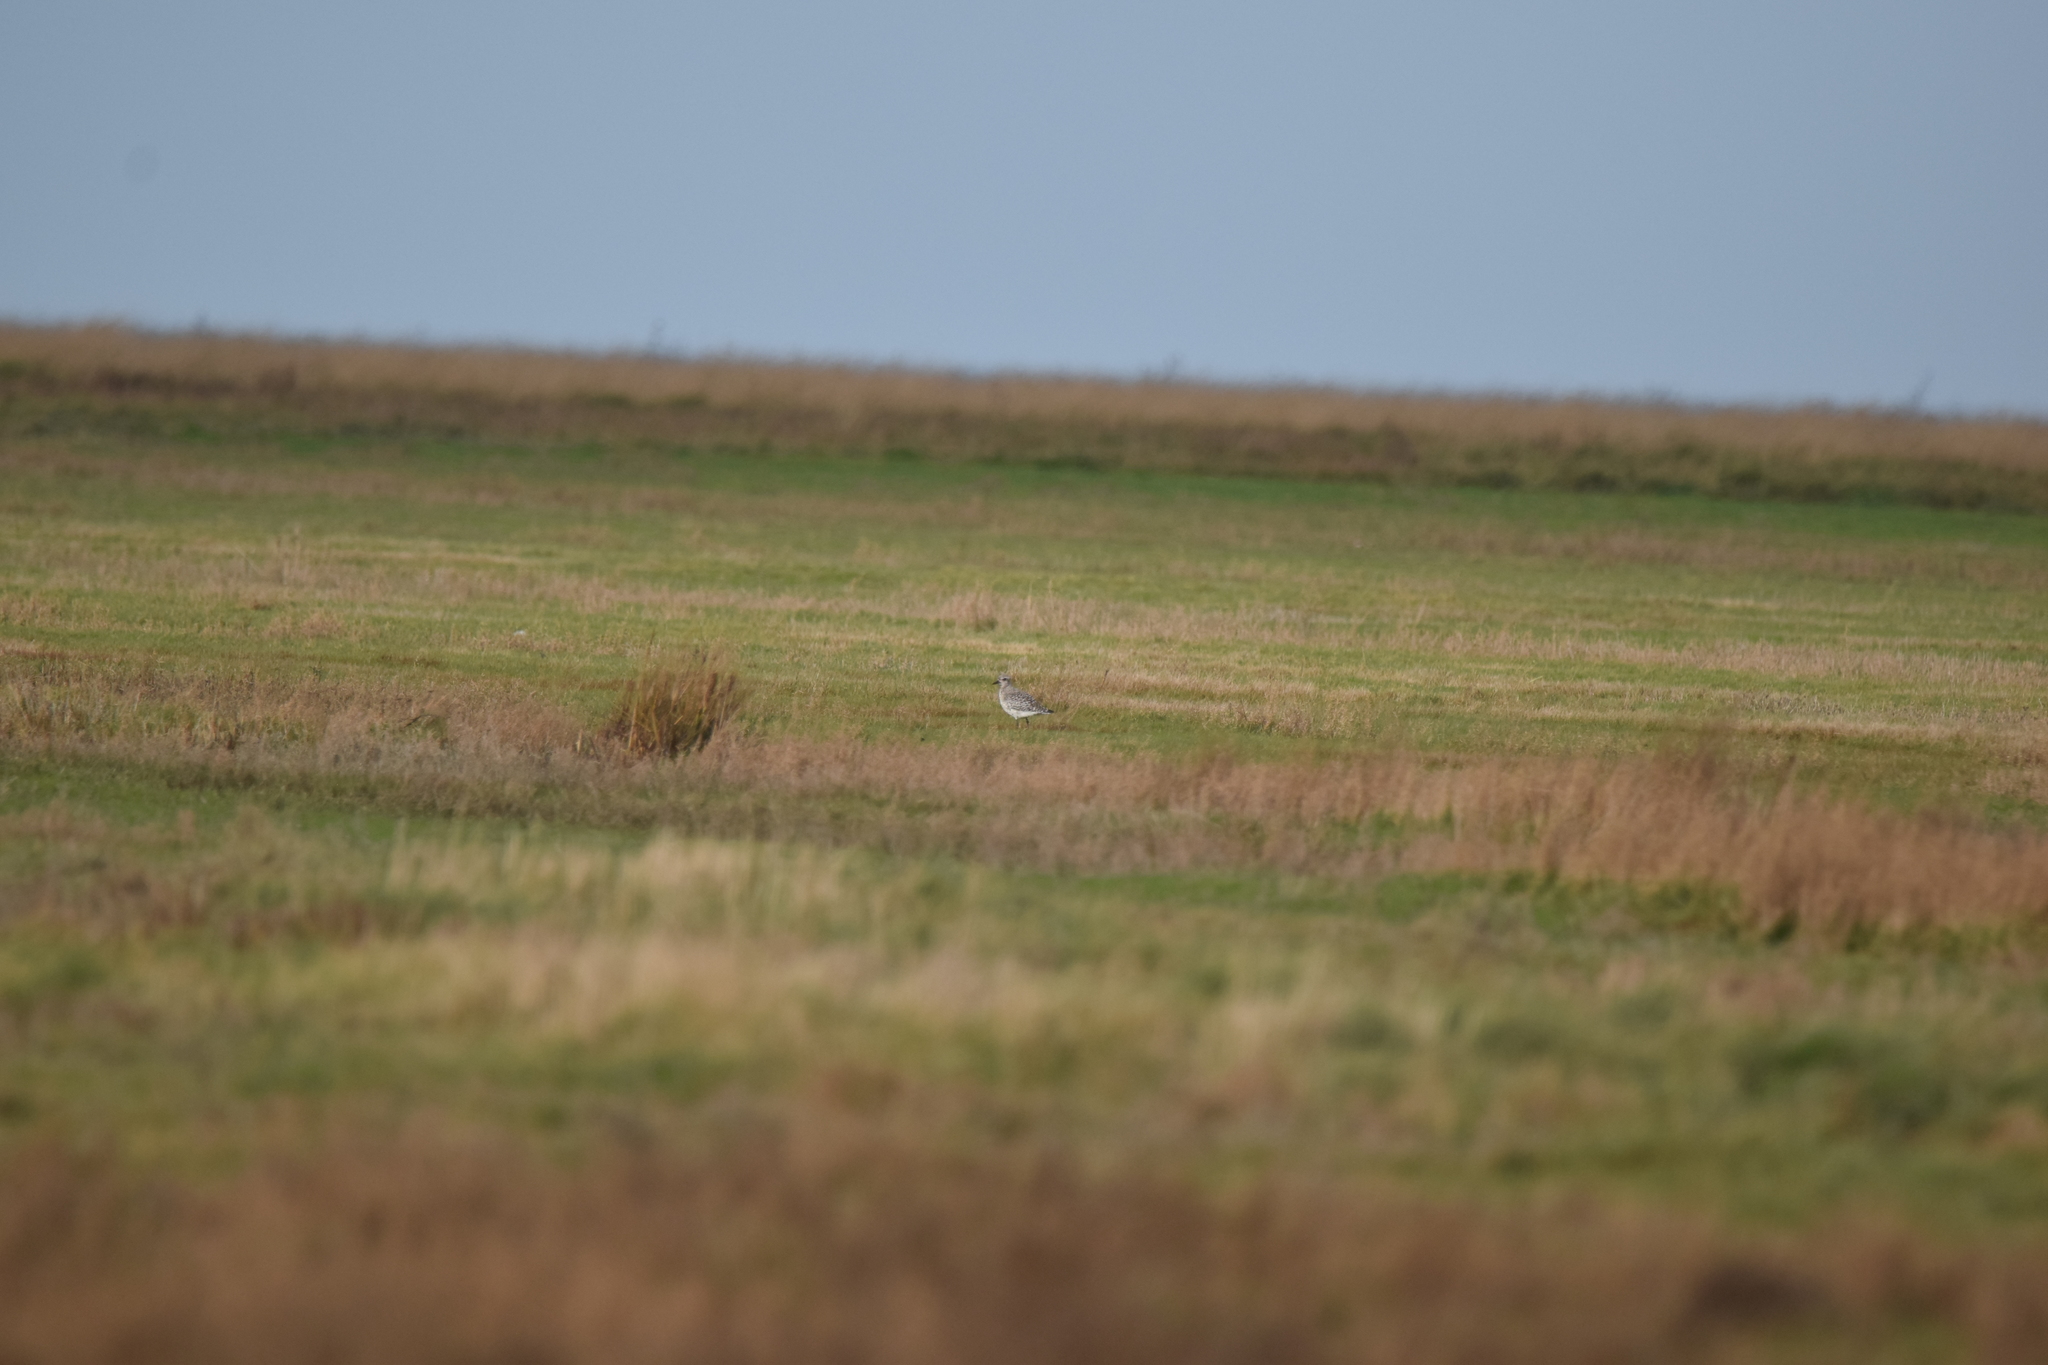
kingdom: Animalia
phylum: Chordata
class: Aves
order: Charadriiformes
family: Charadriidae
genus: Pluvialis
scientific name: Pluvialis squatarola
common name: Grey plover
